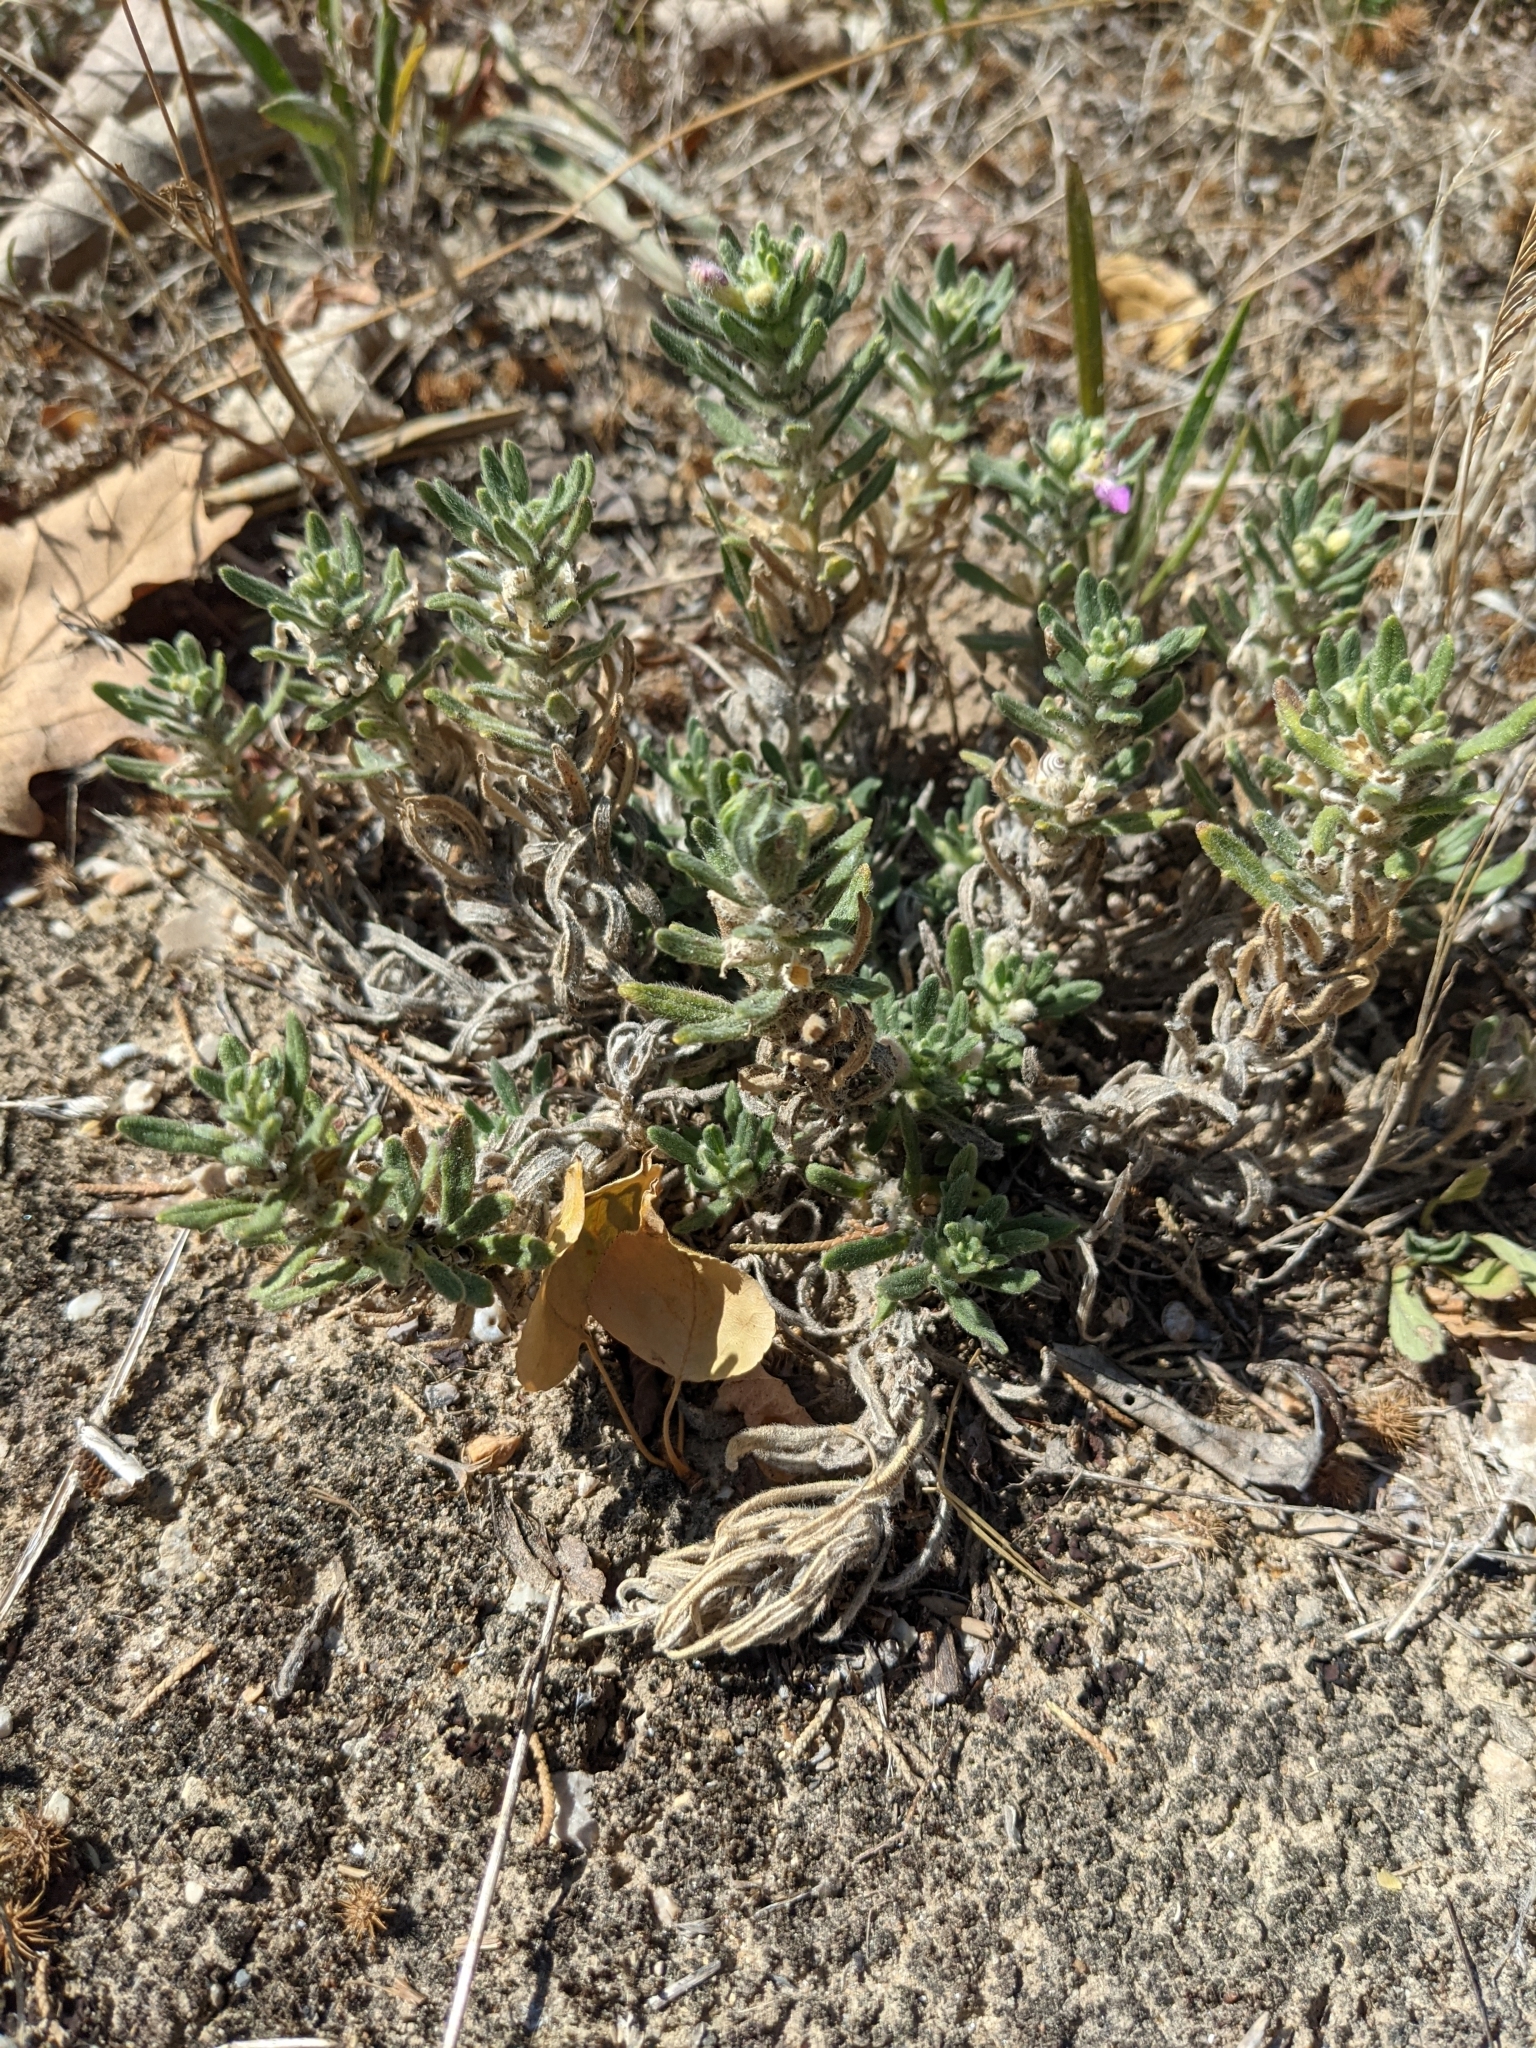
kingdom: Plantae
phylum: Tracheophyta
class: Magnoliopsida
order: Lamiales
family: Lamiaceae
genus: Ajuga
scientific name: Ajuga iva
